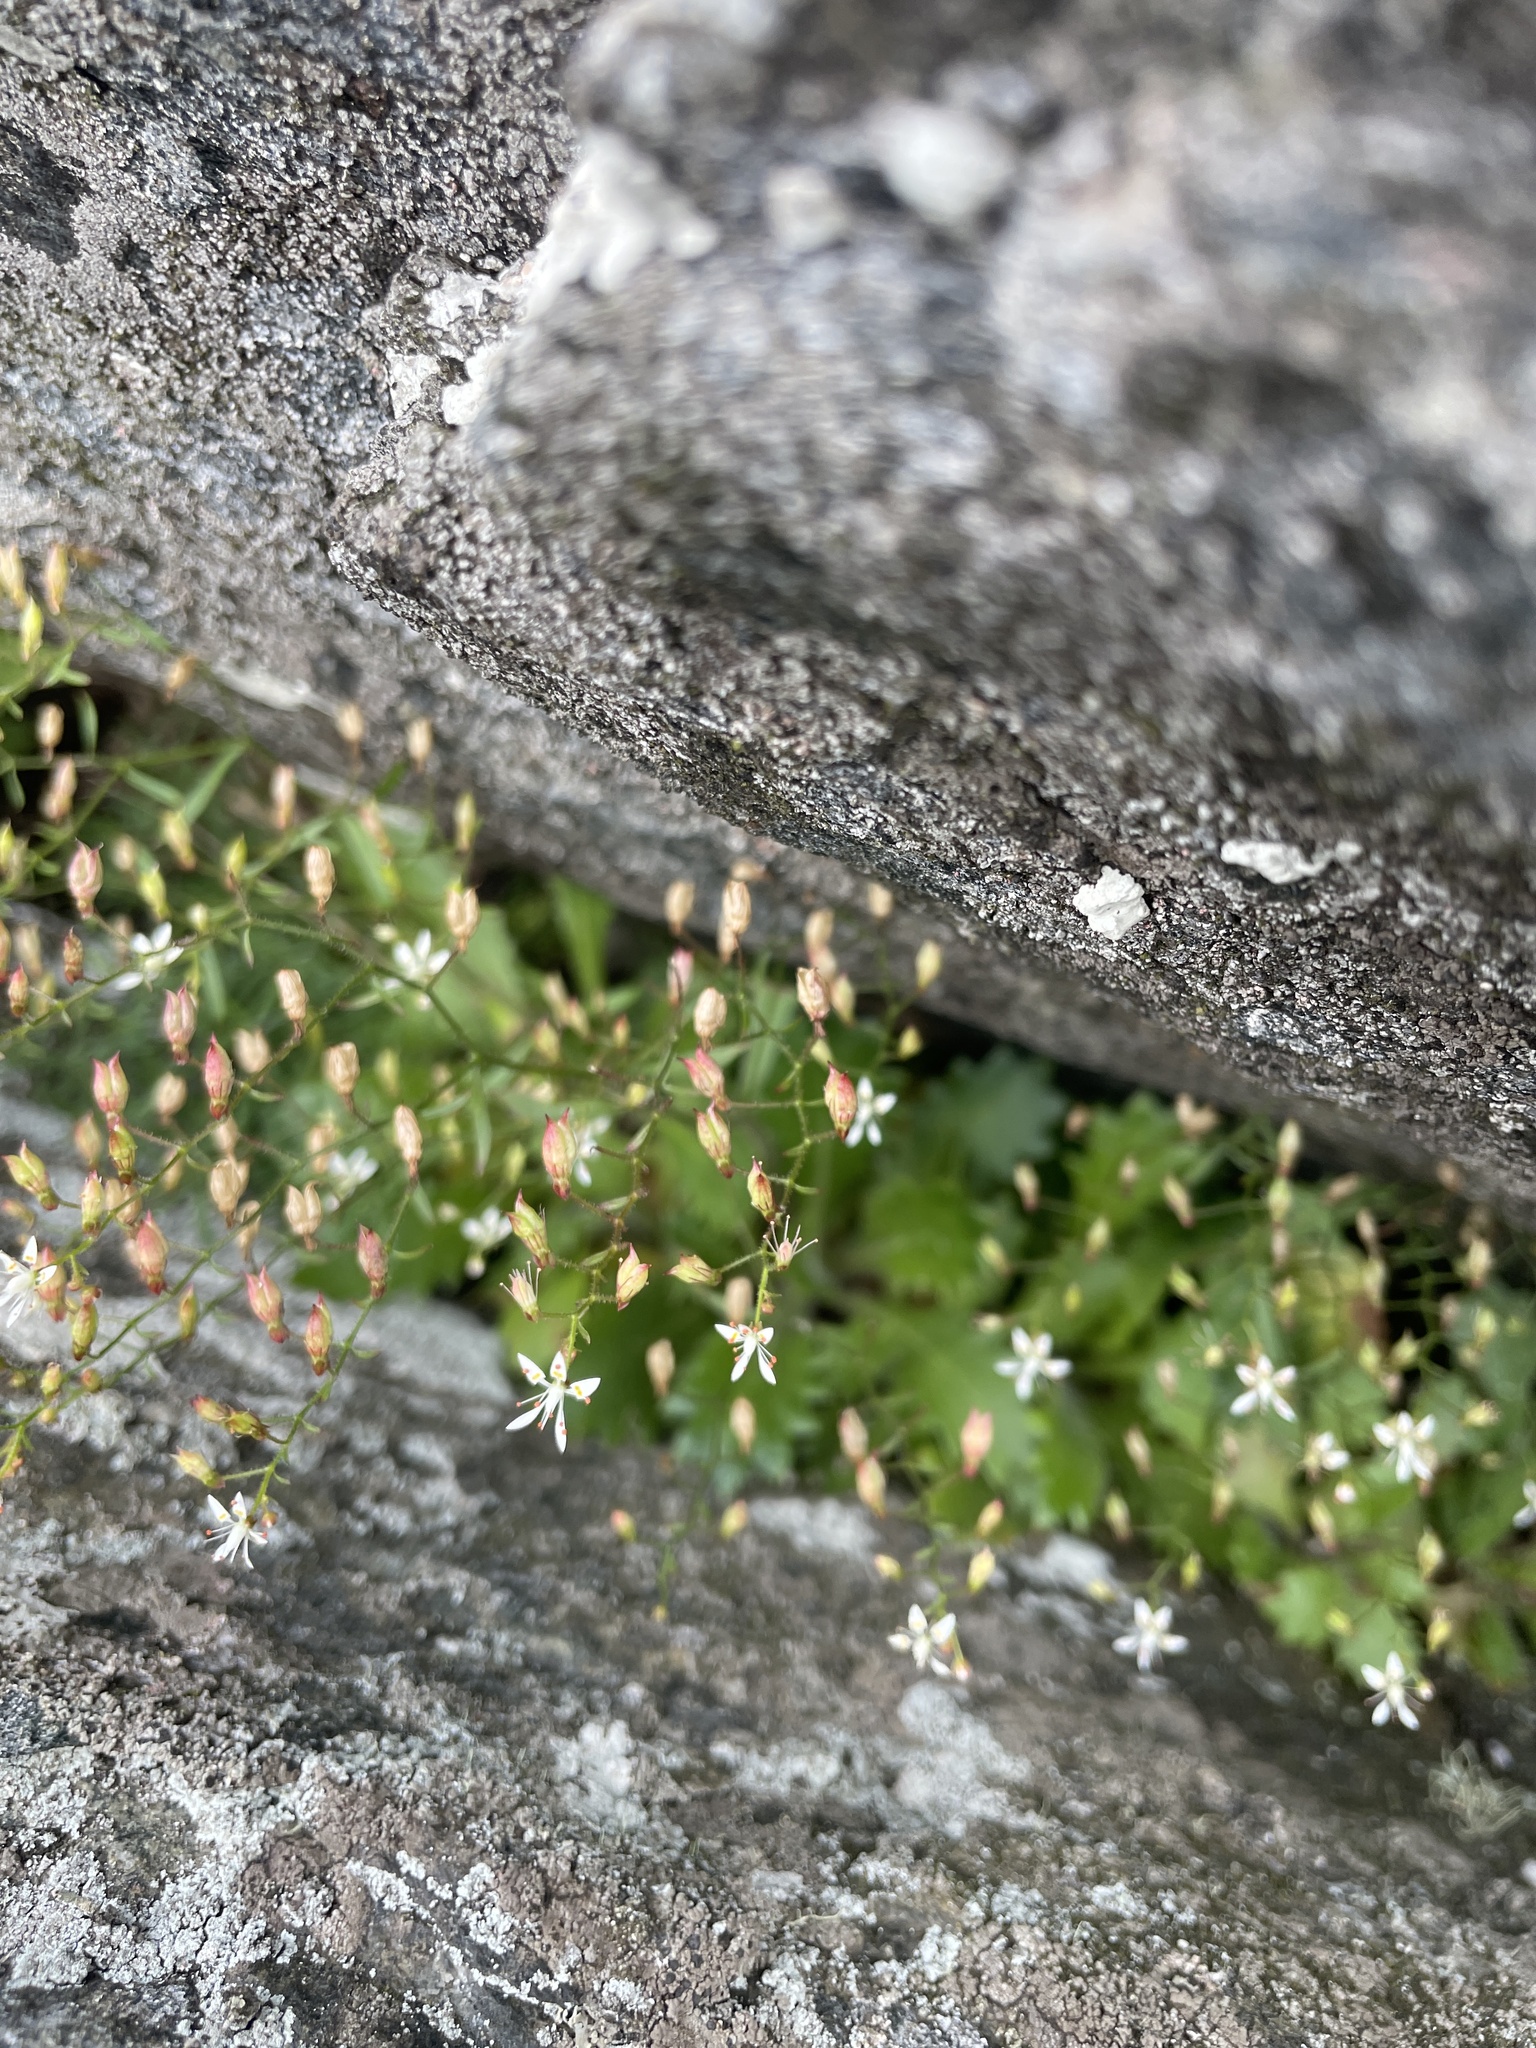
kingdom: Plantae
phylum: Tracheophyta
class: Magnoliopsida
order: Saxifragales
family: Saxifragaceae
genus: Micranthes
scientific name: Micranthes petiolaris
